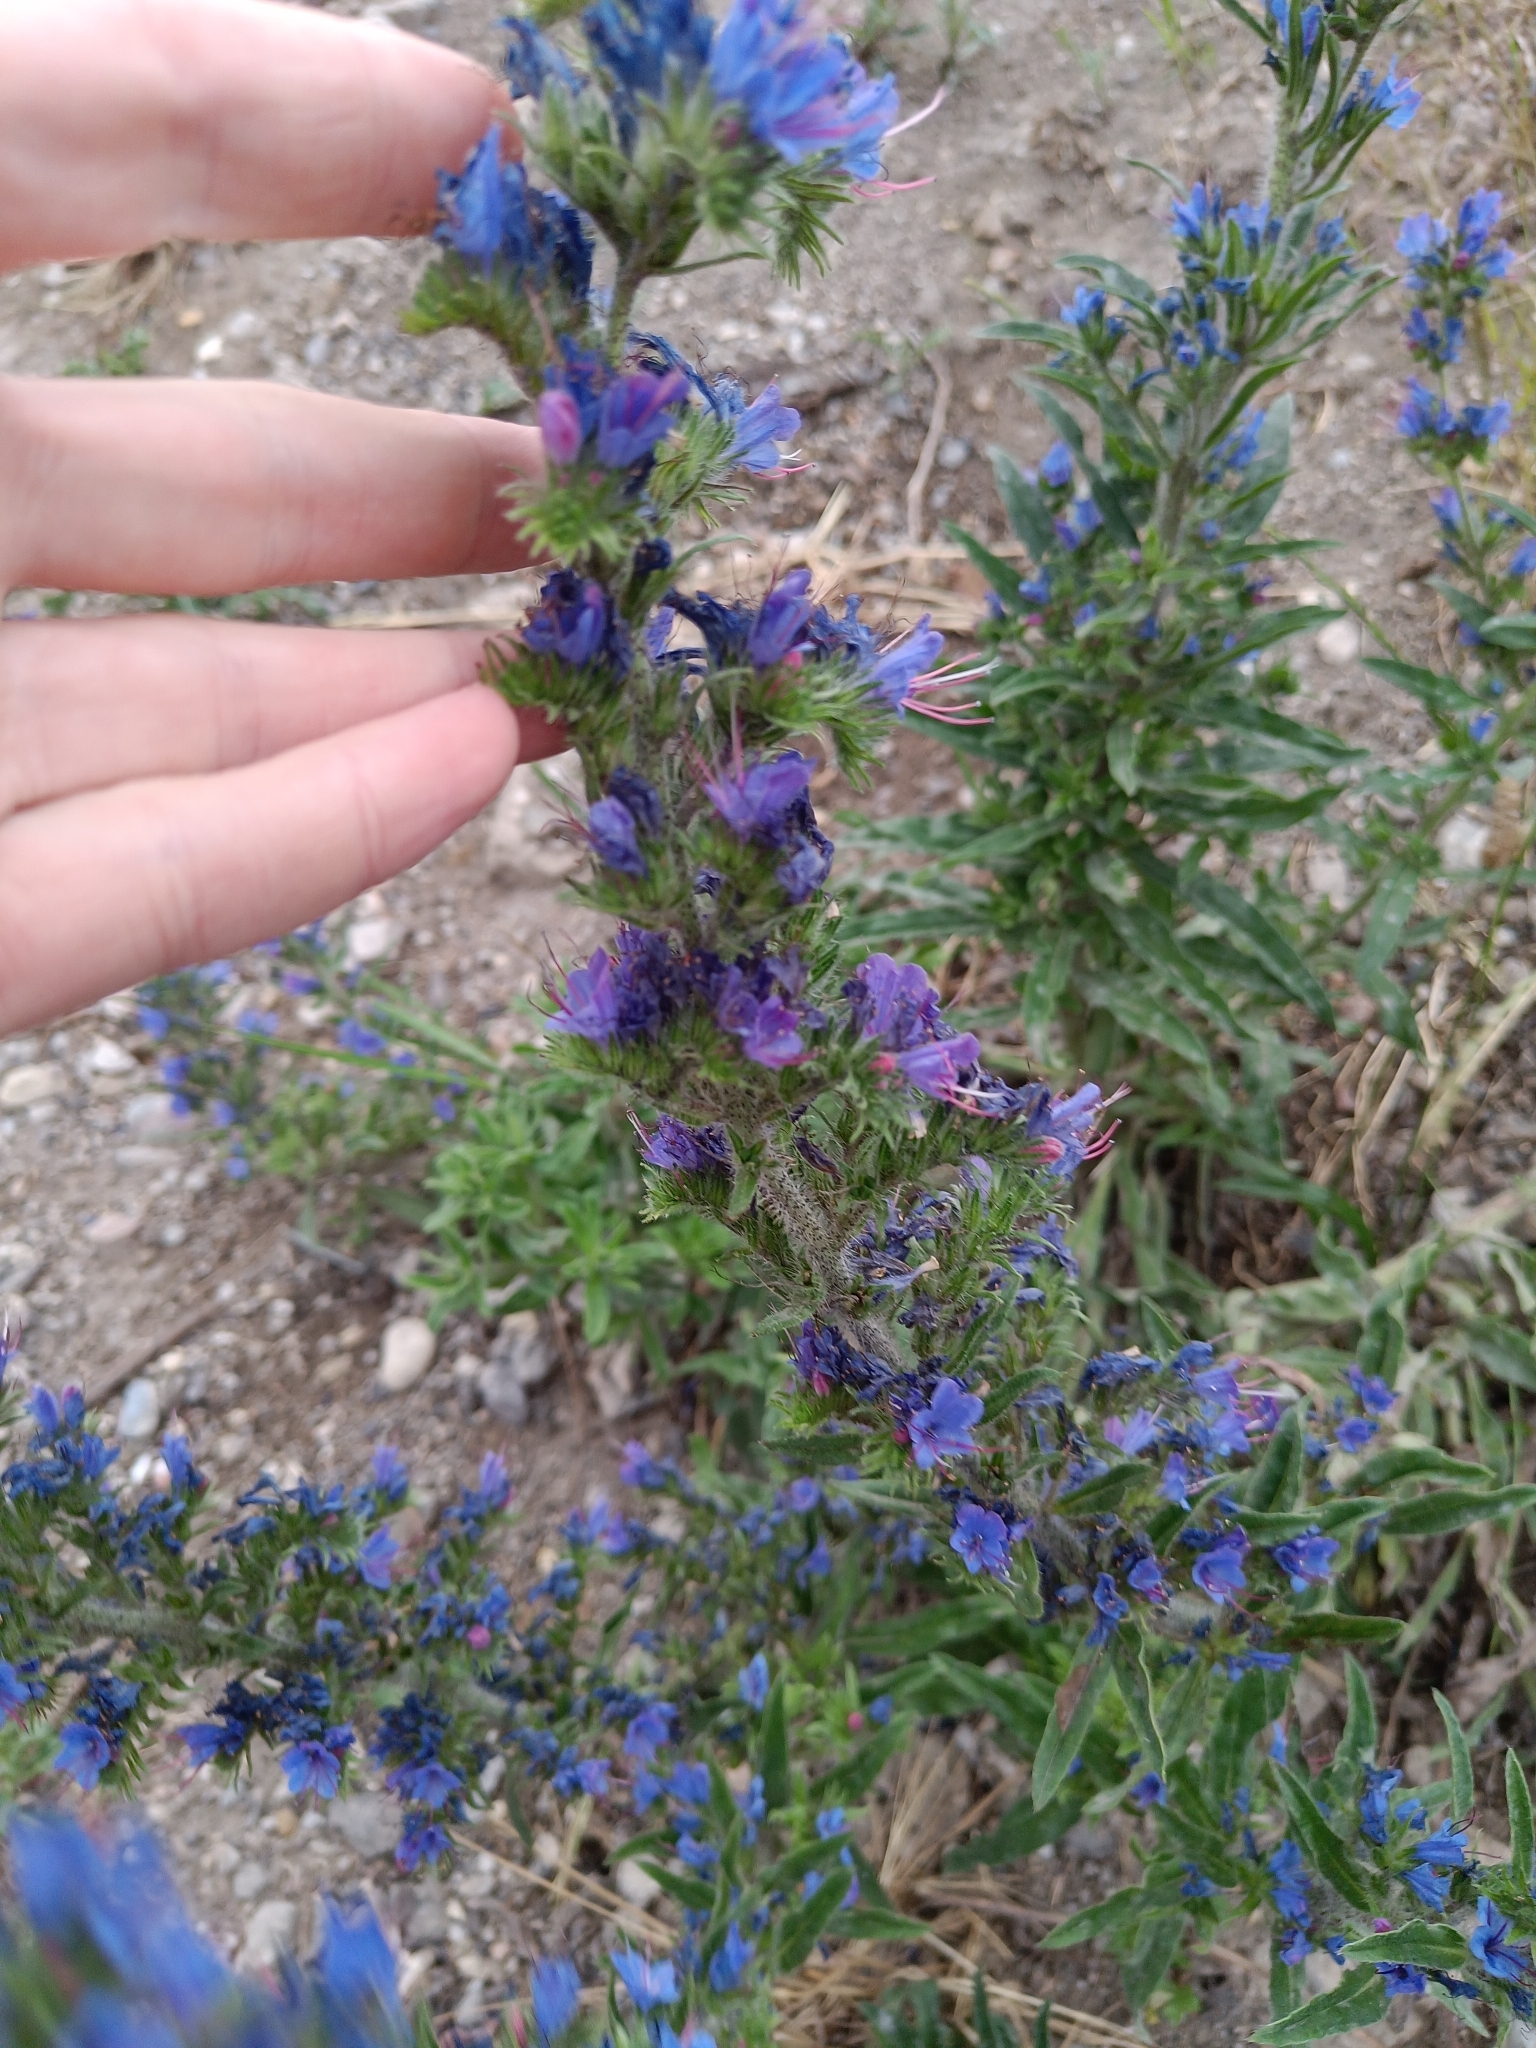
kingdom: Plantae
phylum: Tracheophyta
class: Magnoliopsida
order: Boraginales
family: Boraginaceae
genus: Echium
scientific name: Echium vulgare
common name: Common viper's bugloss
